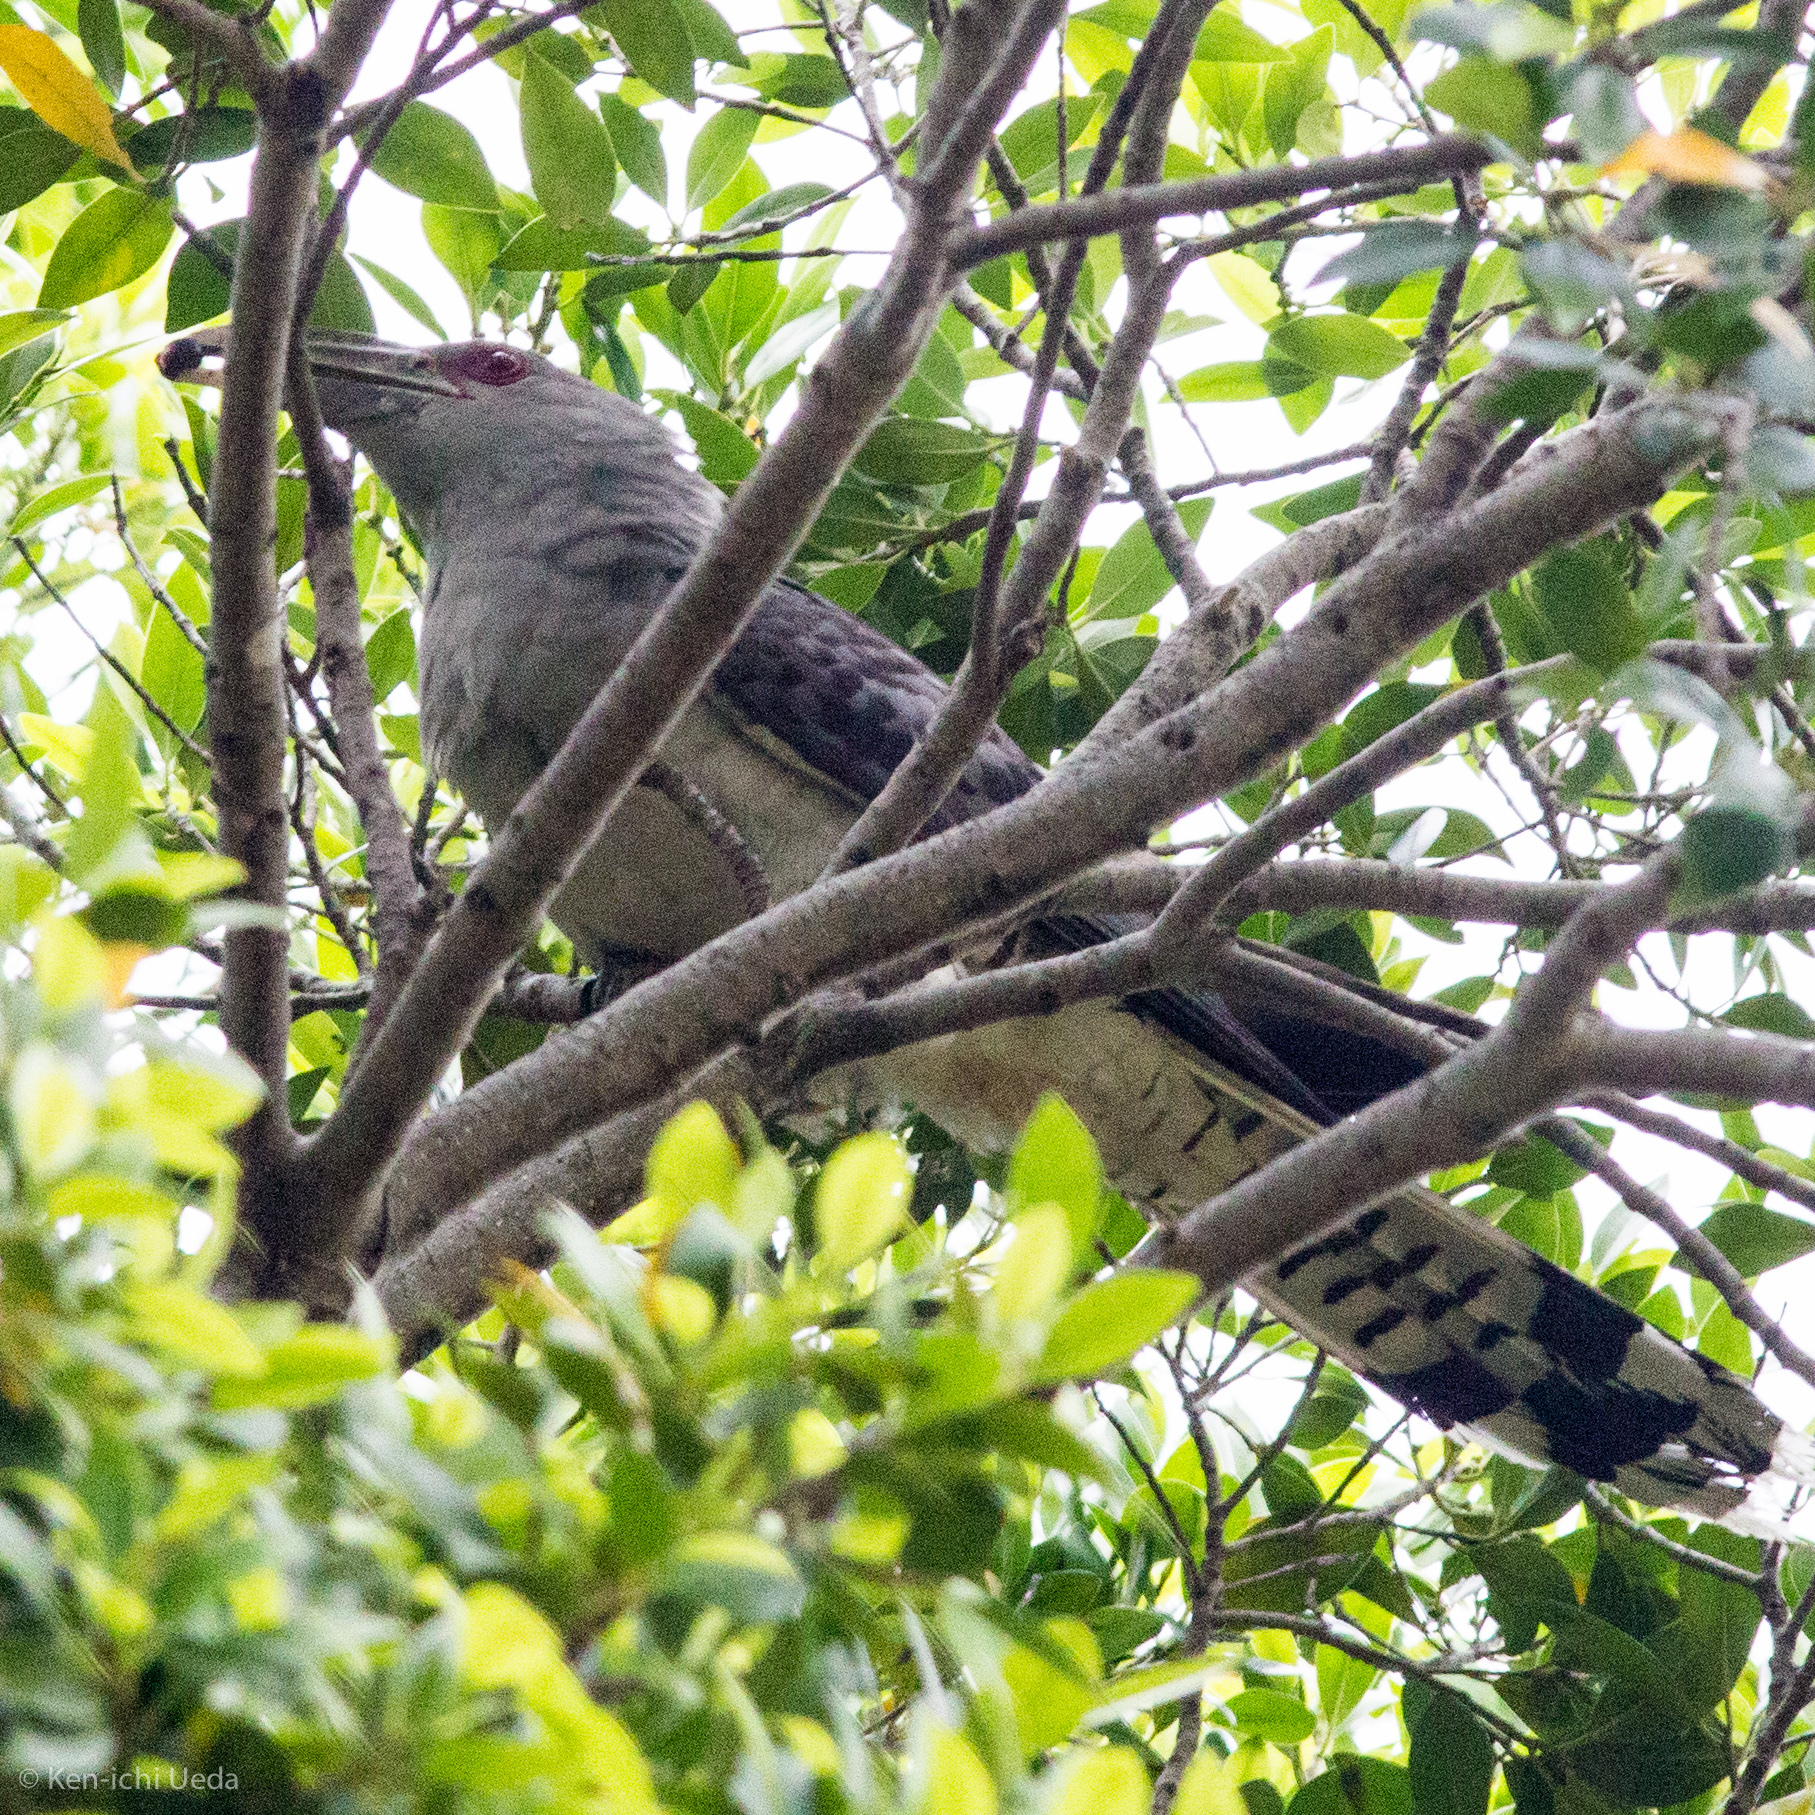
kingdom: Animalia
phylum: Chordata
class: Aves
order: Cuculiformes
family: Cuculidae
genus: Scythrops
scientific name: Scythrops novaehollandiae
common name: Channel-billed cuckoo
